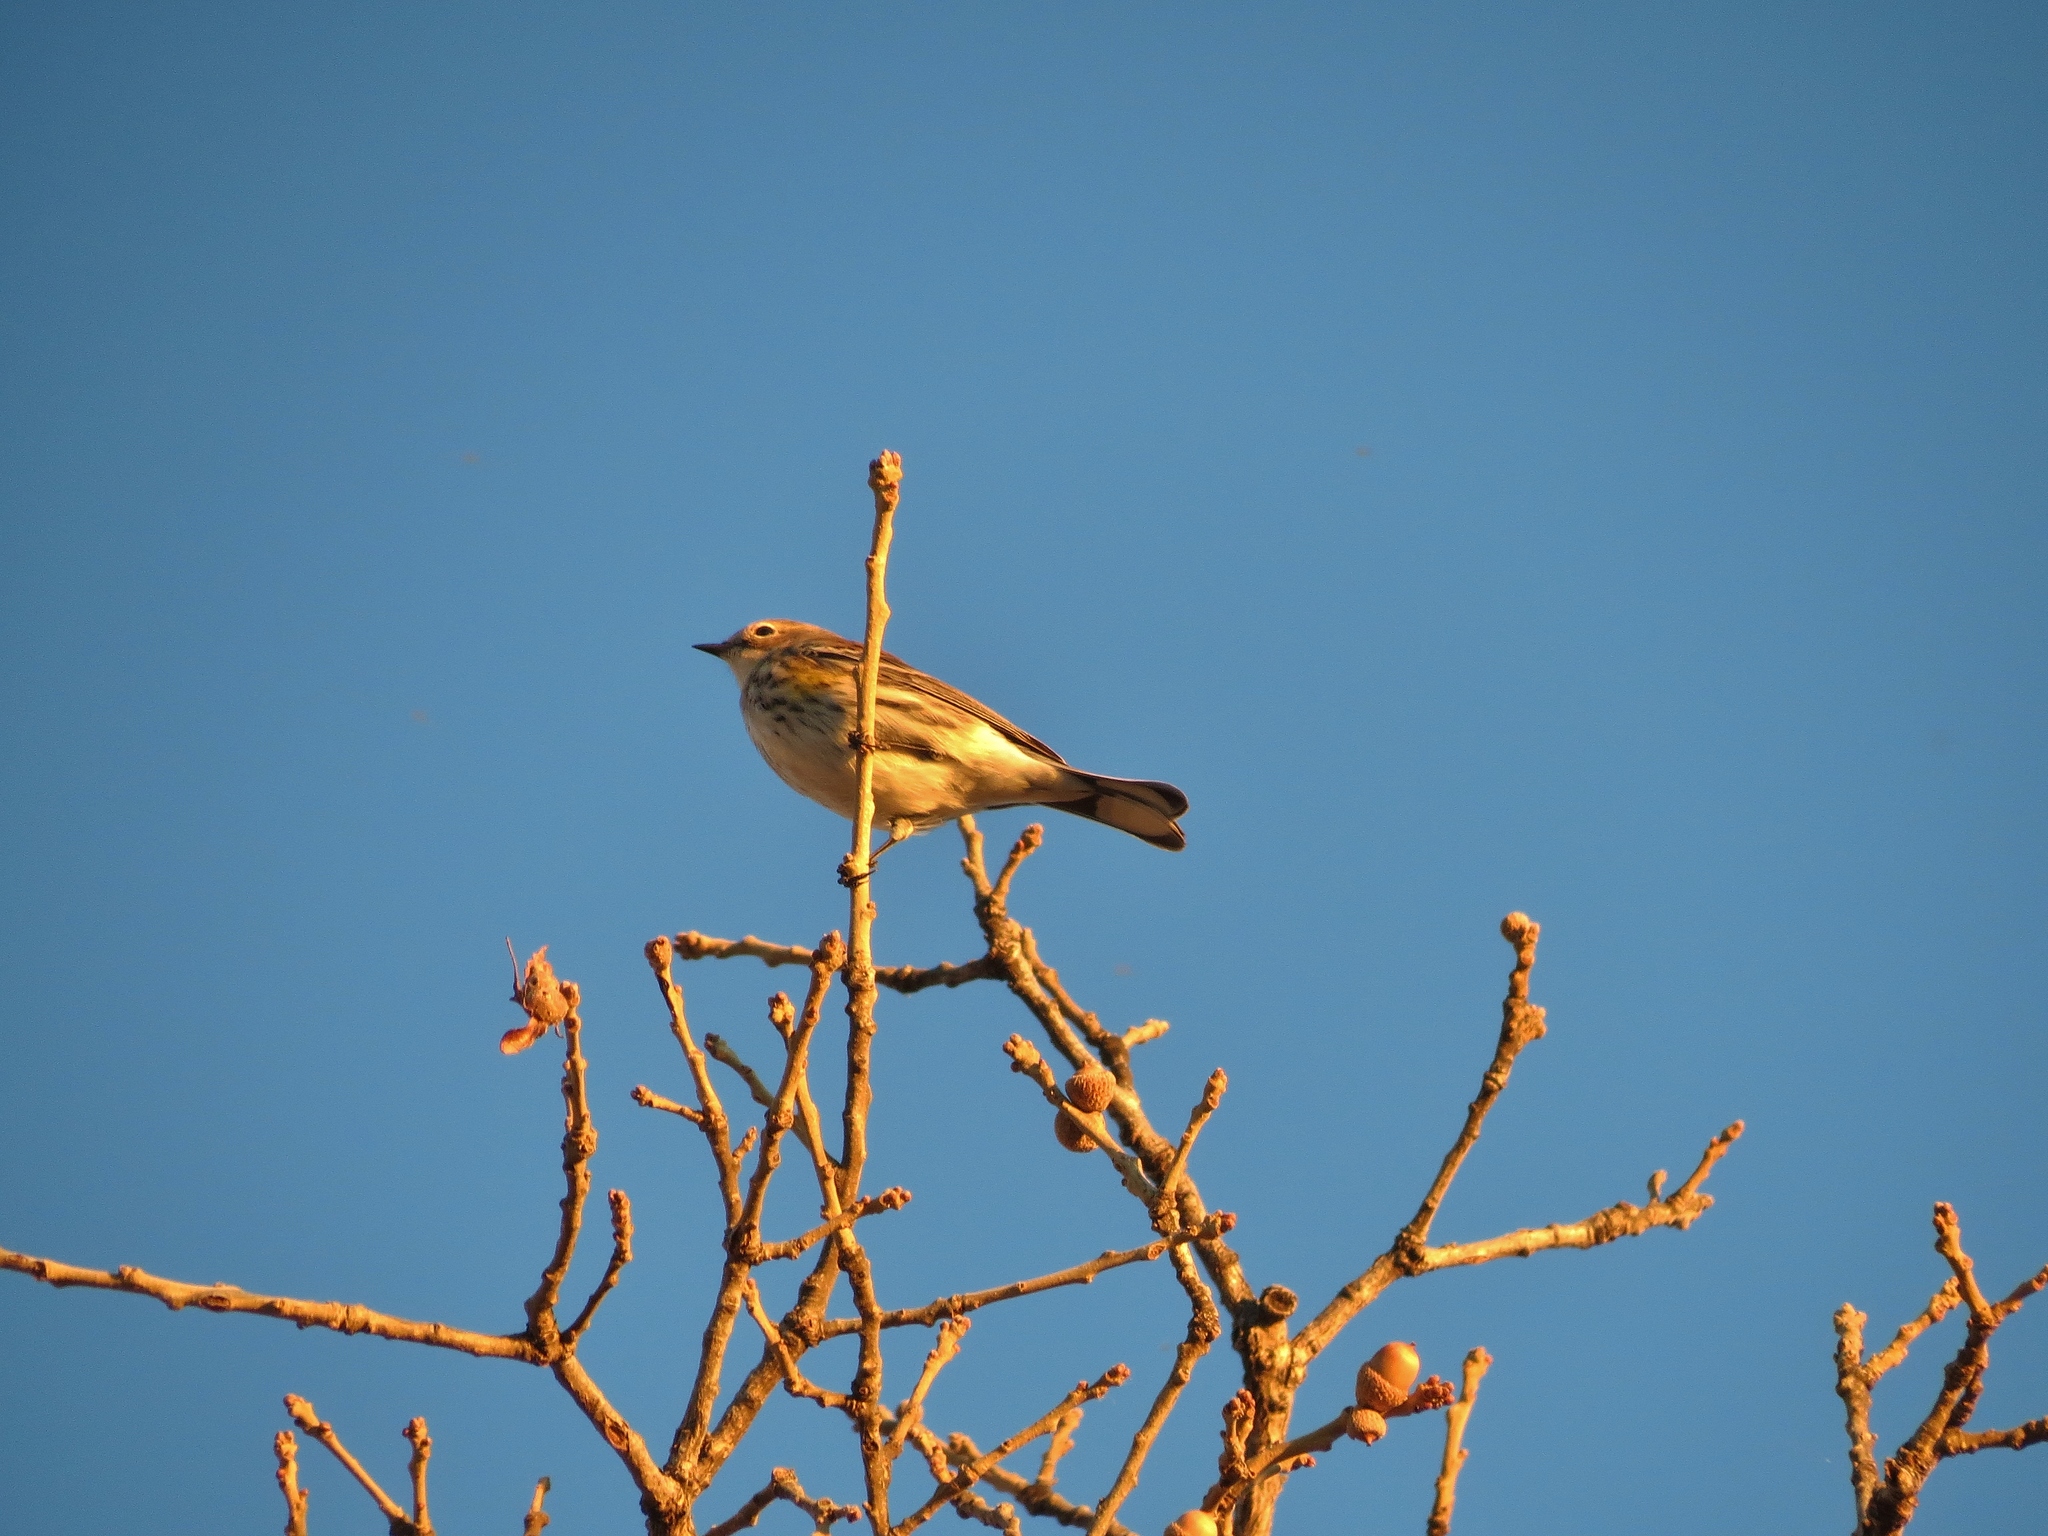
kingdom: Animalia
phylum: Chordata
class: Aves
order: Passeriformes
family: Parulidae
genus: Setophaga
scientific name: Setophaga coronata
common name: Myrtle warbler
